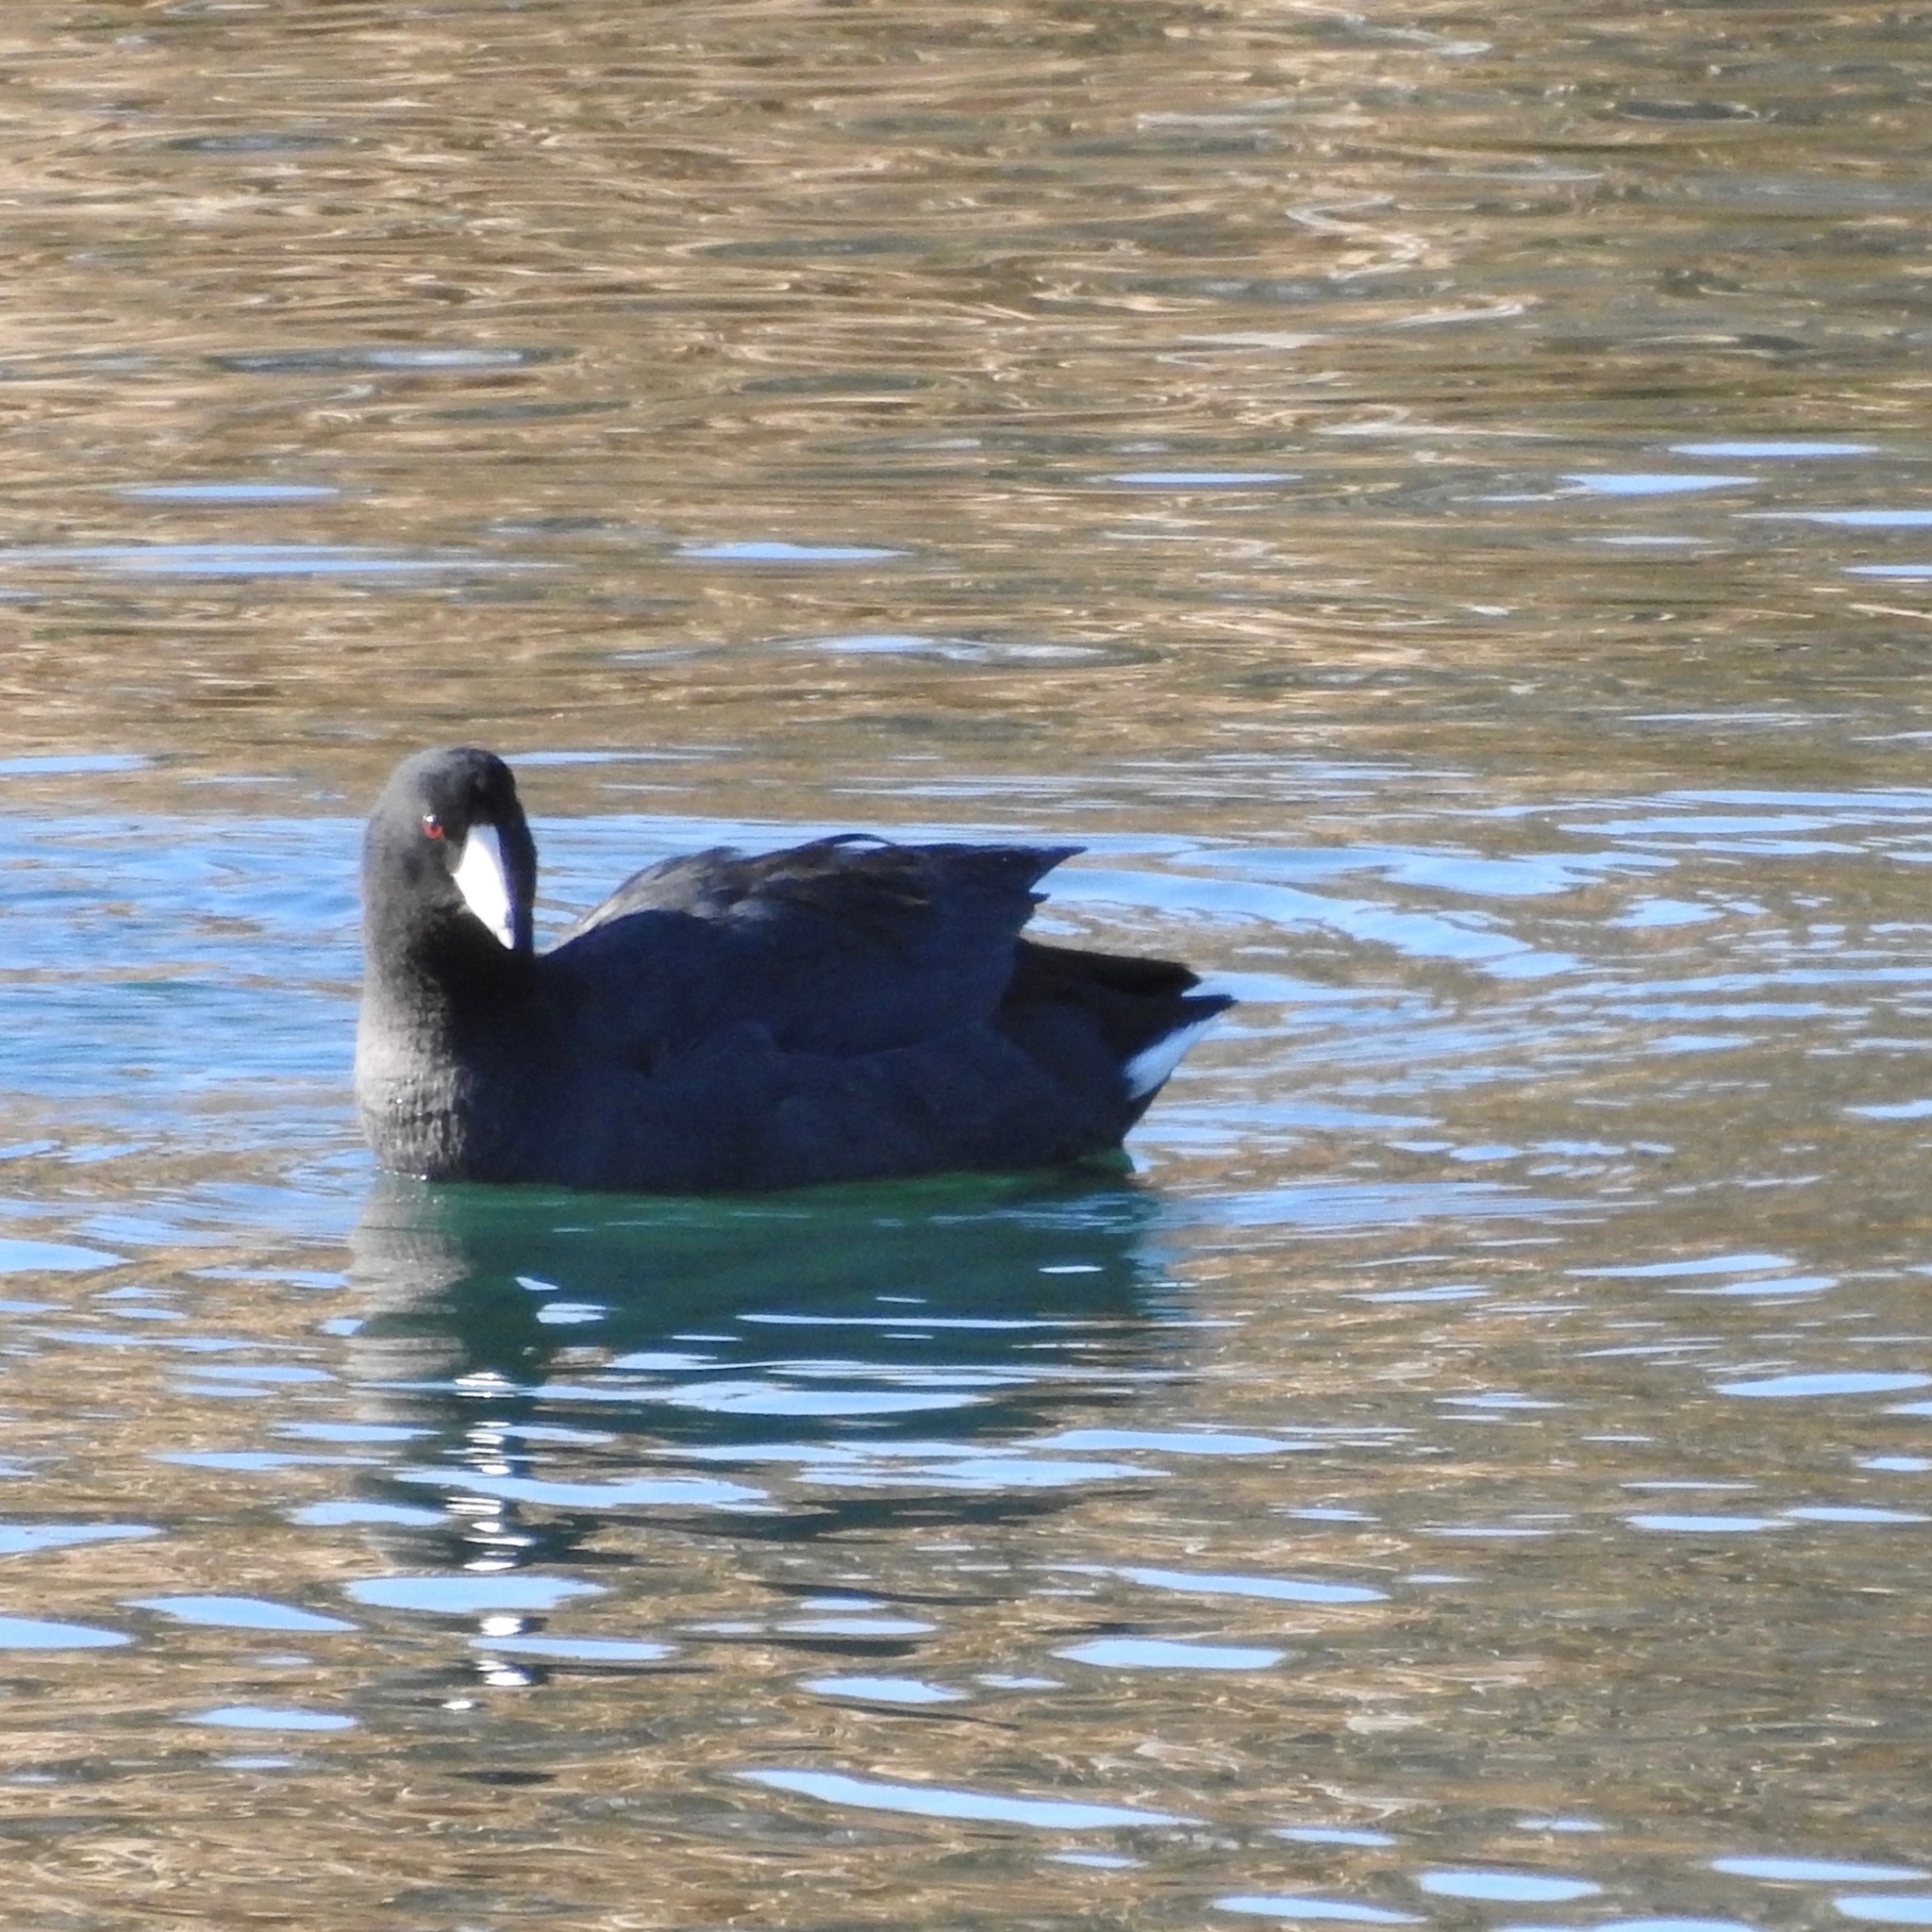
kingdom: Animalia
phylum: Chordata
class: Aves
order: Gruiformes
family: Rallidae
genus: Fulica
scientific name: Fulica americana
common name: American coot
